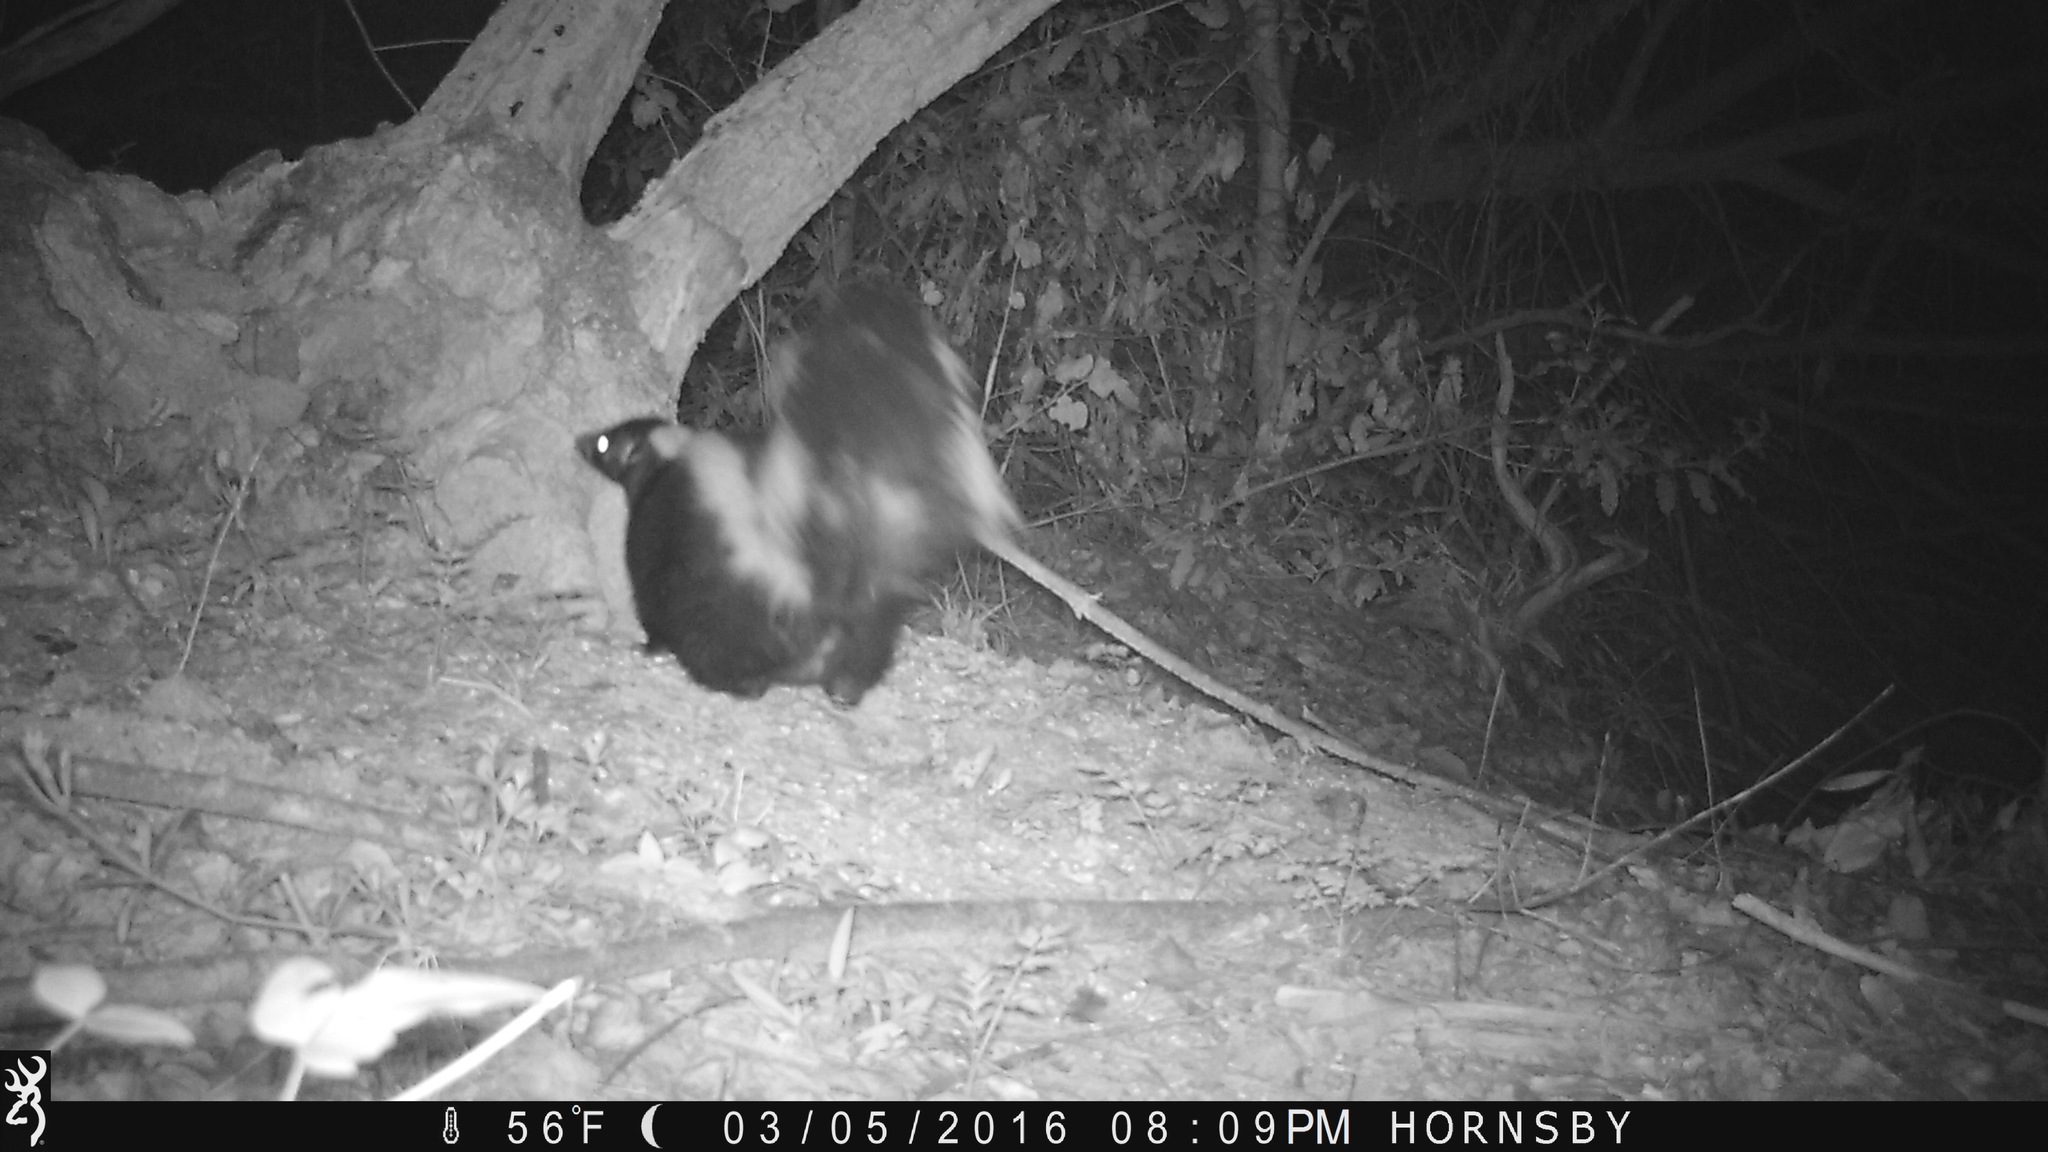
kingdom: Animalia
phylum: Chordata
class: Mammalia
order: Carnivora
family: Mephitidae
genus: Mephitis
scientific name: Mephitis mephitis
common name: Striped skunk
